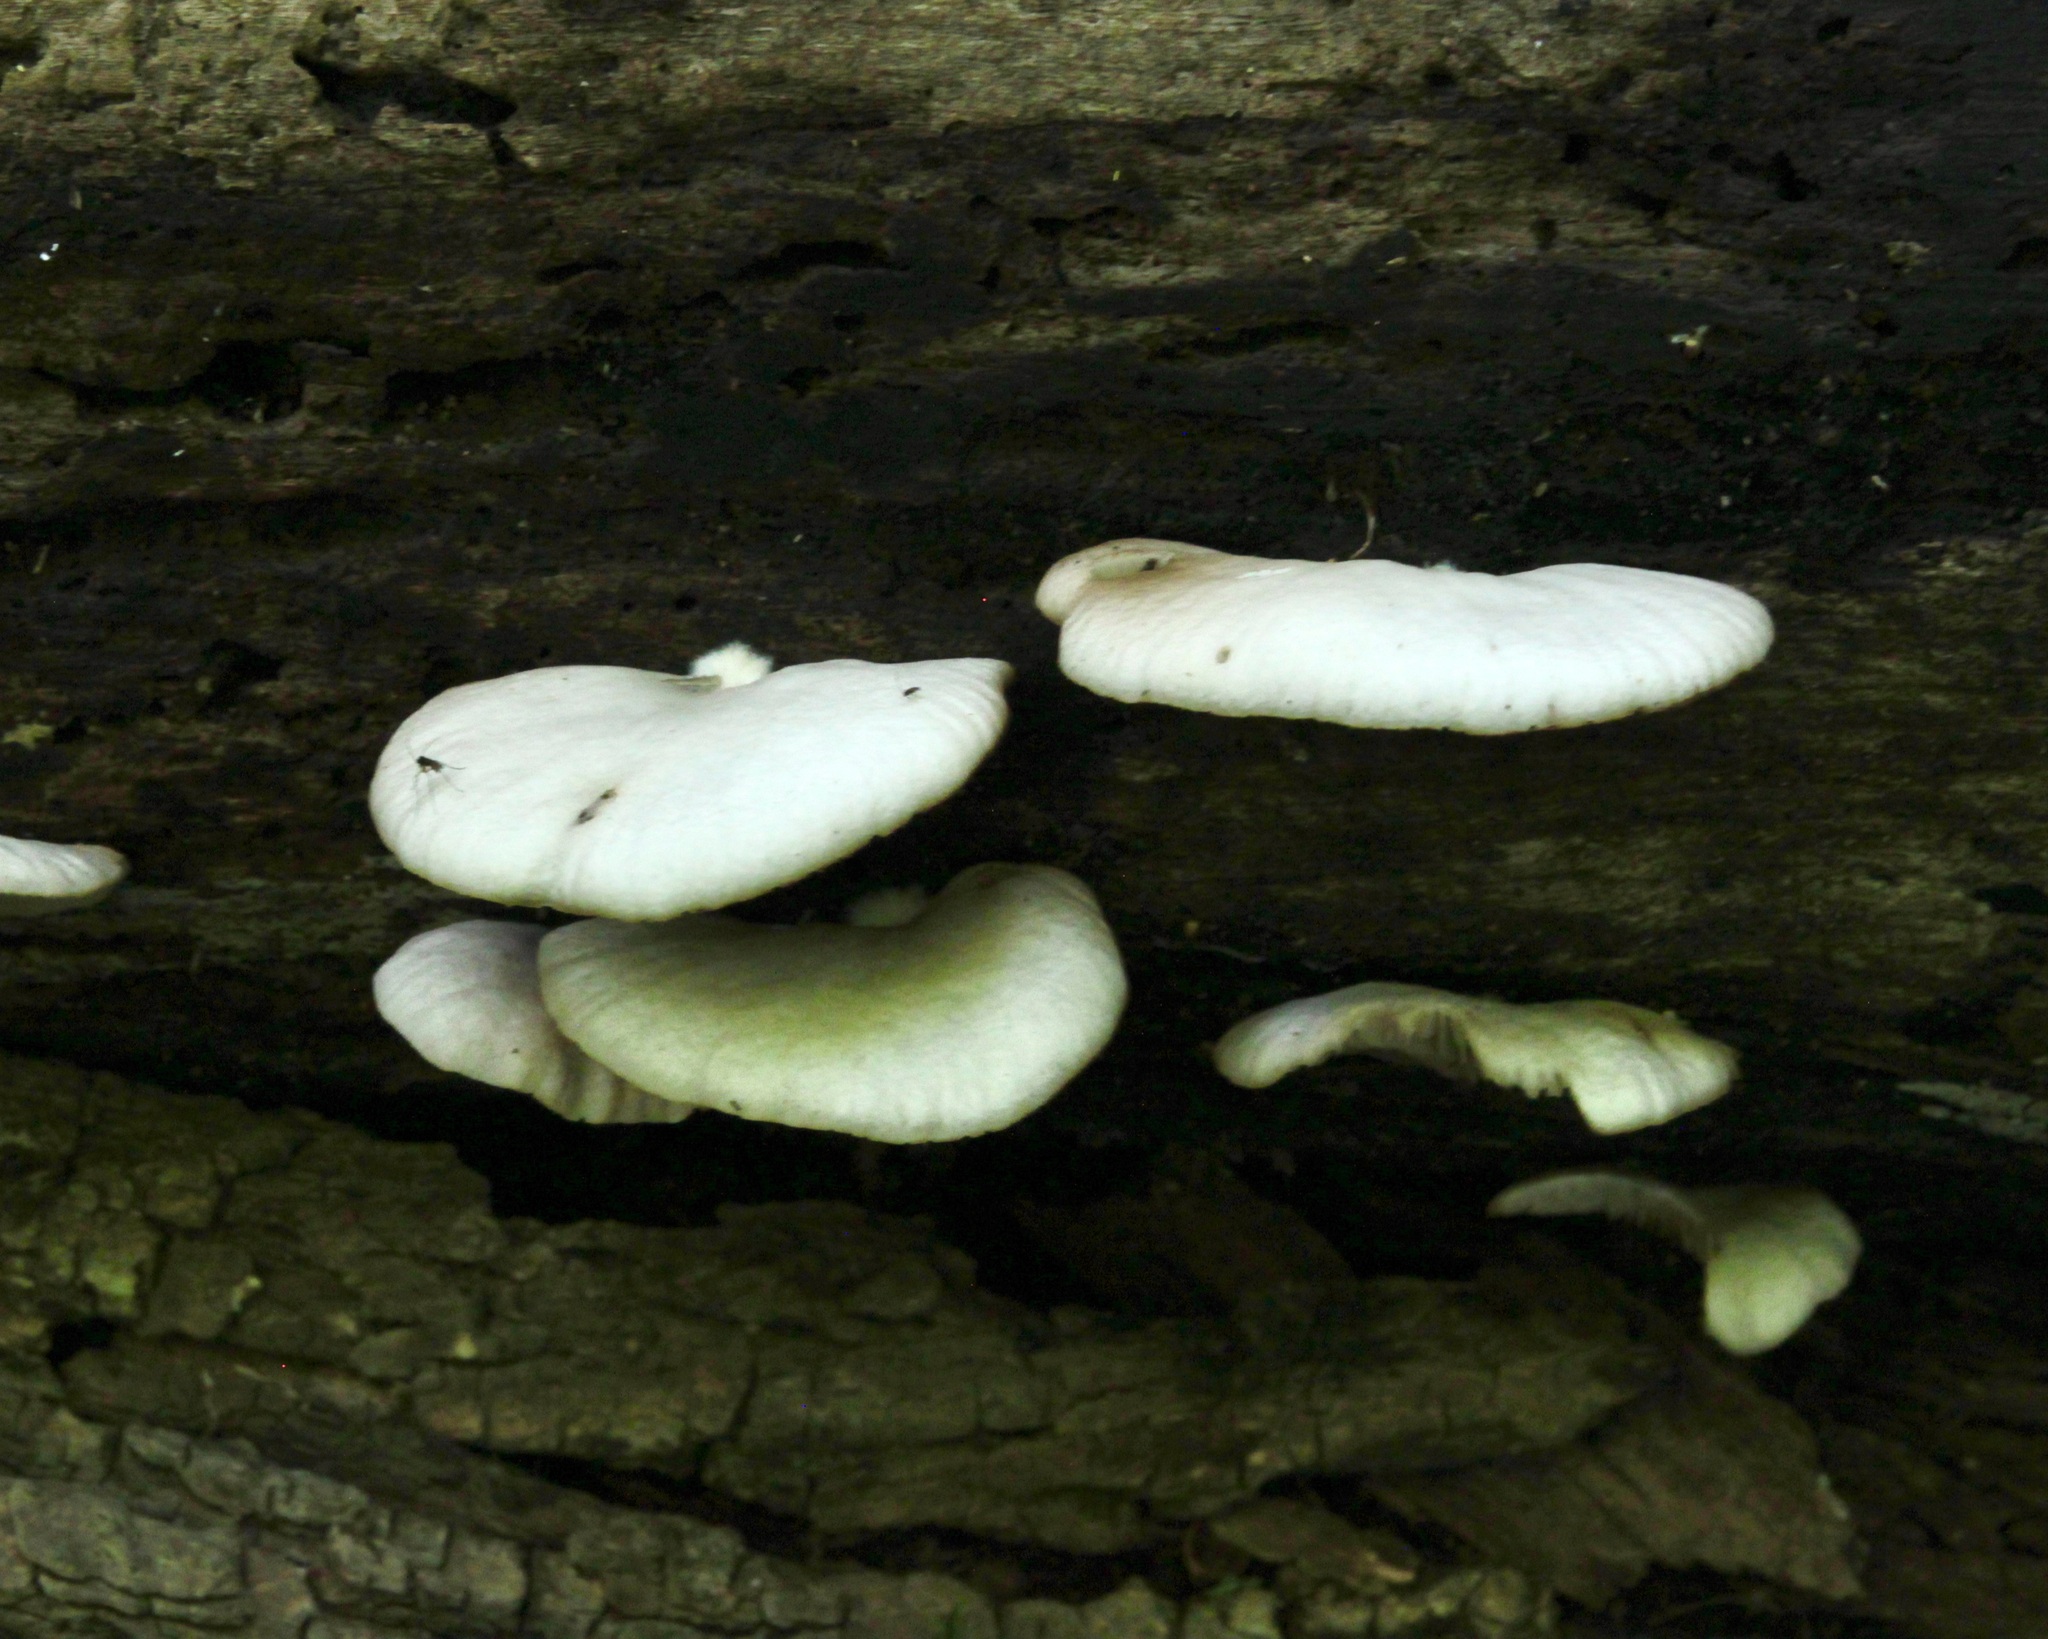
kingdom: Fungi
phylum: Basidiomycota
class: Agaricomycetes
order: Agaricales
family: Crepidotaceae
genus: Crepidotus
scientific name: Crepidotus applanatus
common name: Flat crep
